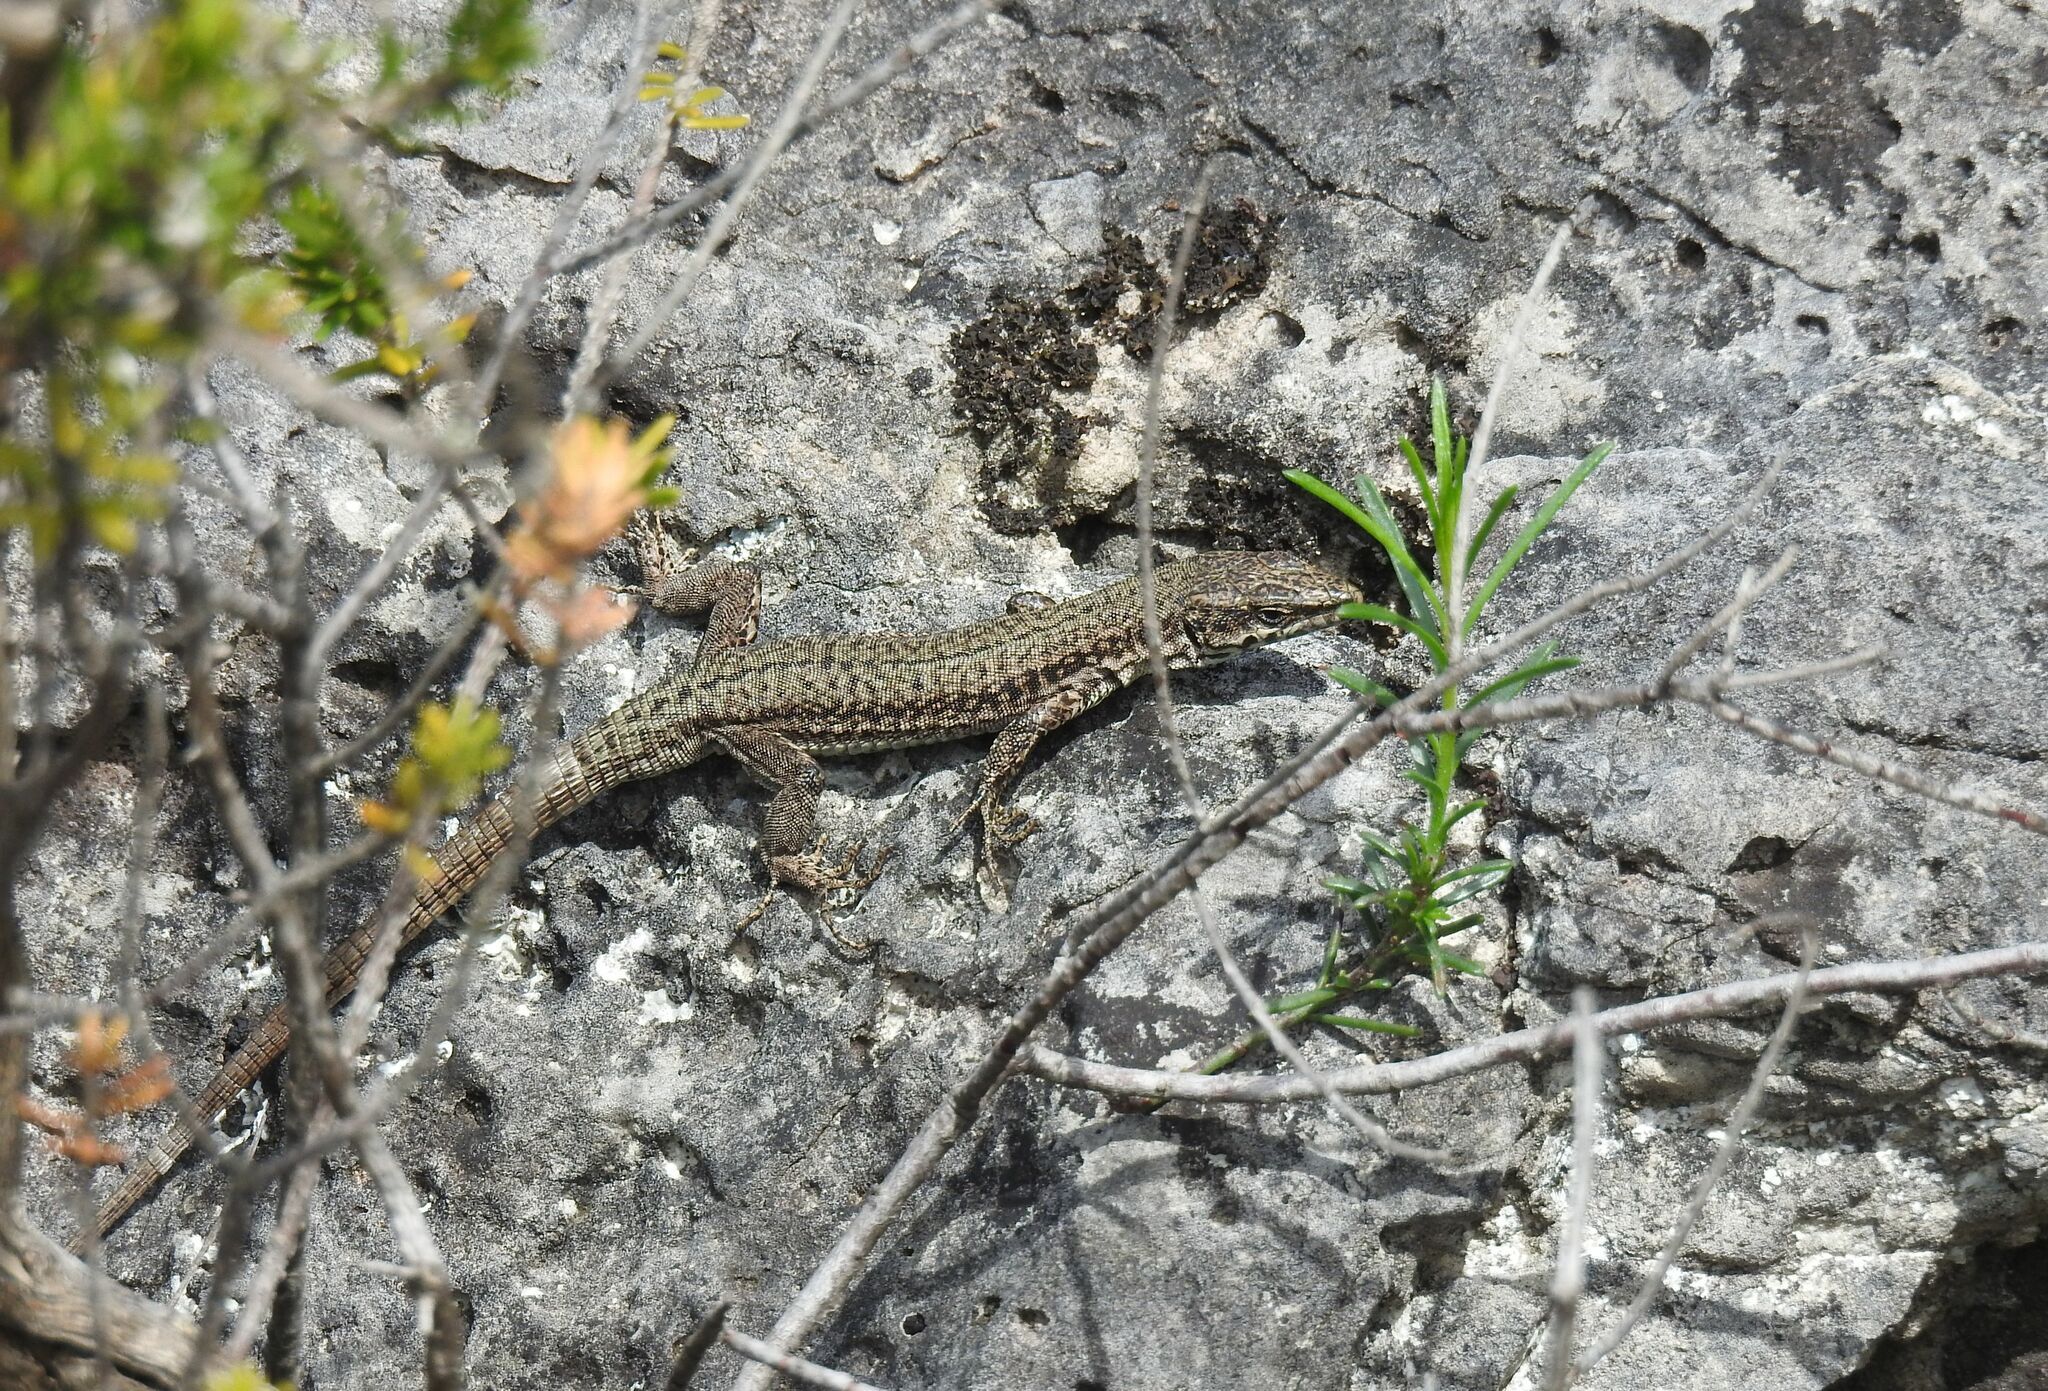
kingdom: Animalia
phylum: Chordata
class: Squamata
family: Lacertidae
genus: Podarcis
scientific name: Podarcis liolepis
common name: Catalonian wall lizard
